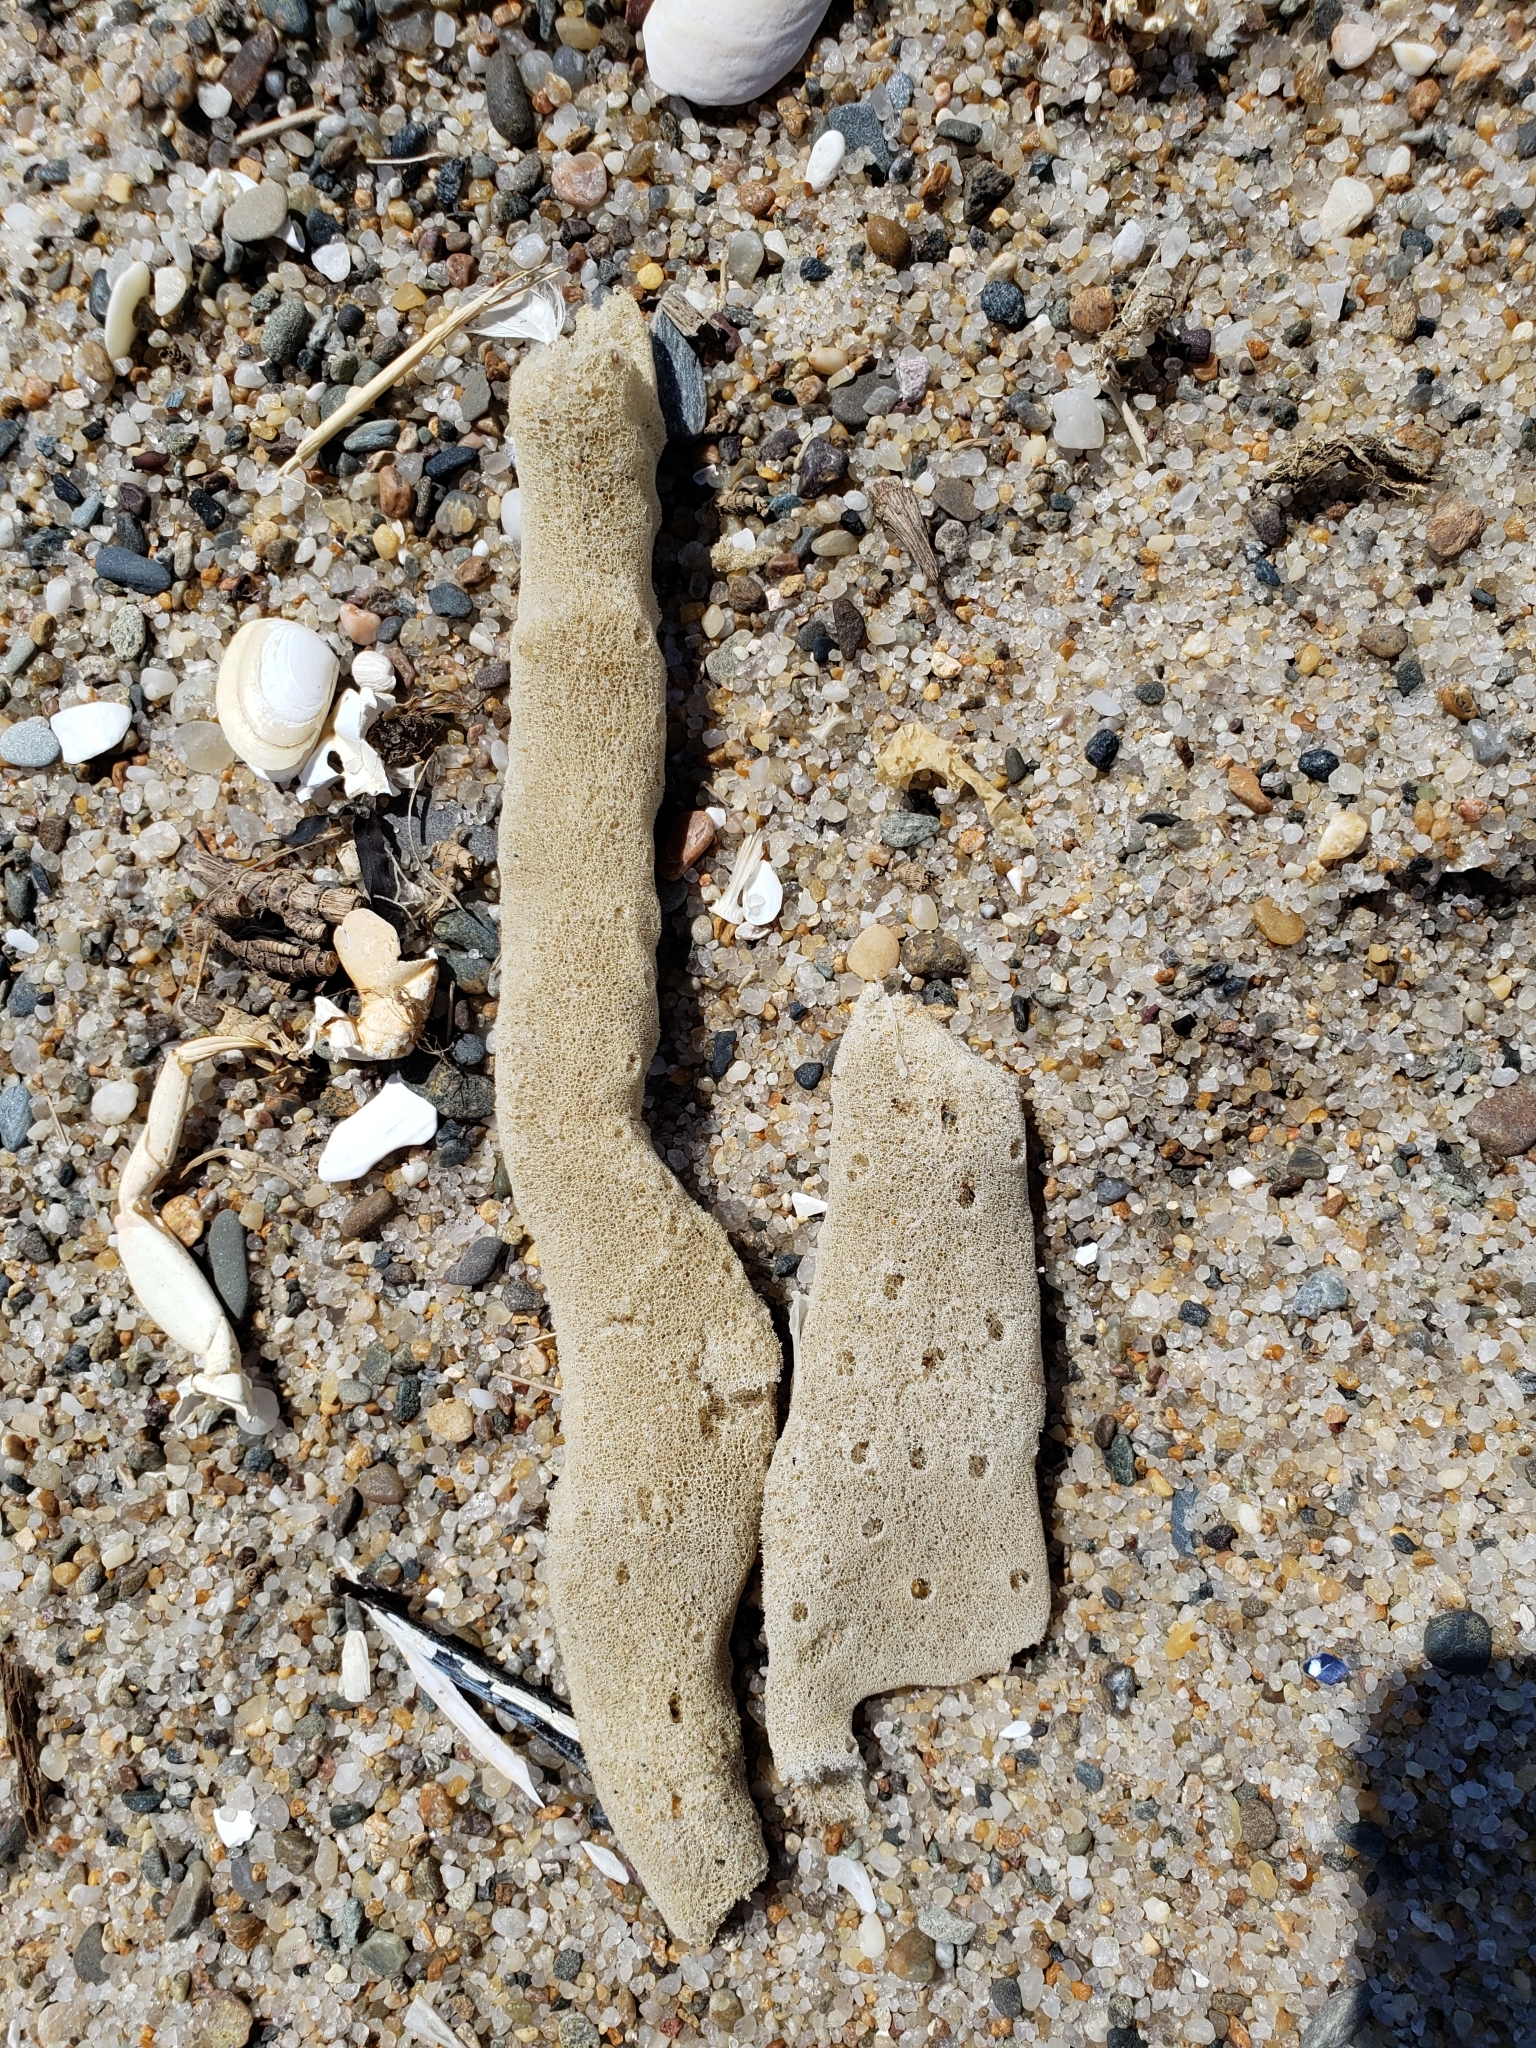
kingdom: Animalia
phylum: Porifera
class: Demospongiae
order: Haplosclerida
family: Chalinidae
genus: Haliclona
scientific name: Haliclona oculata
